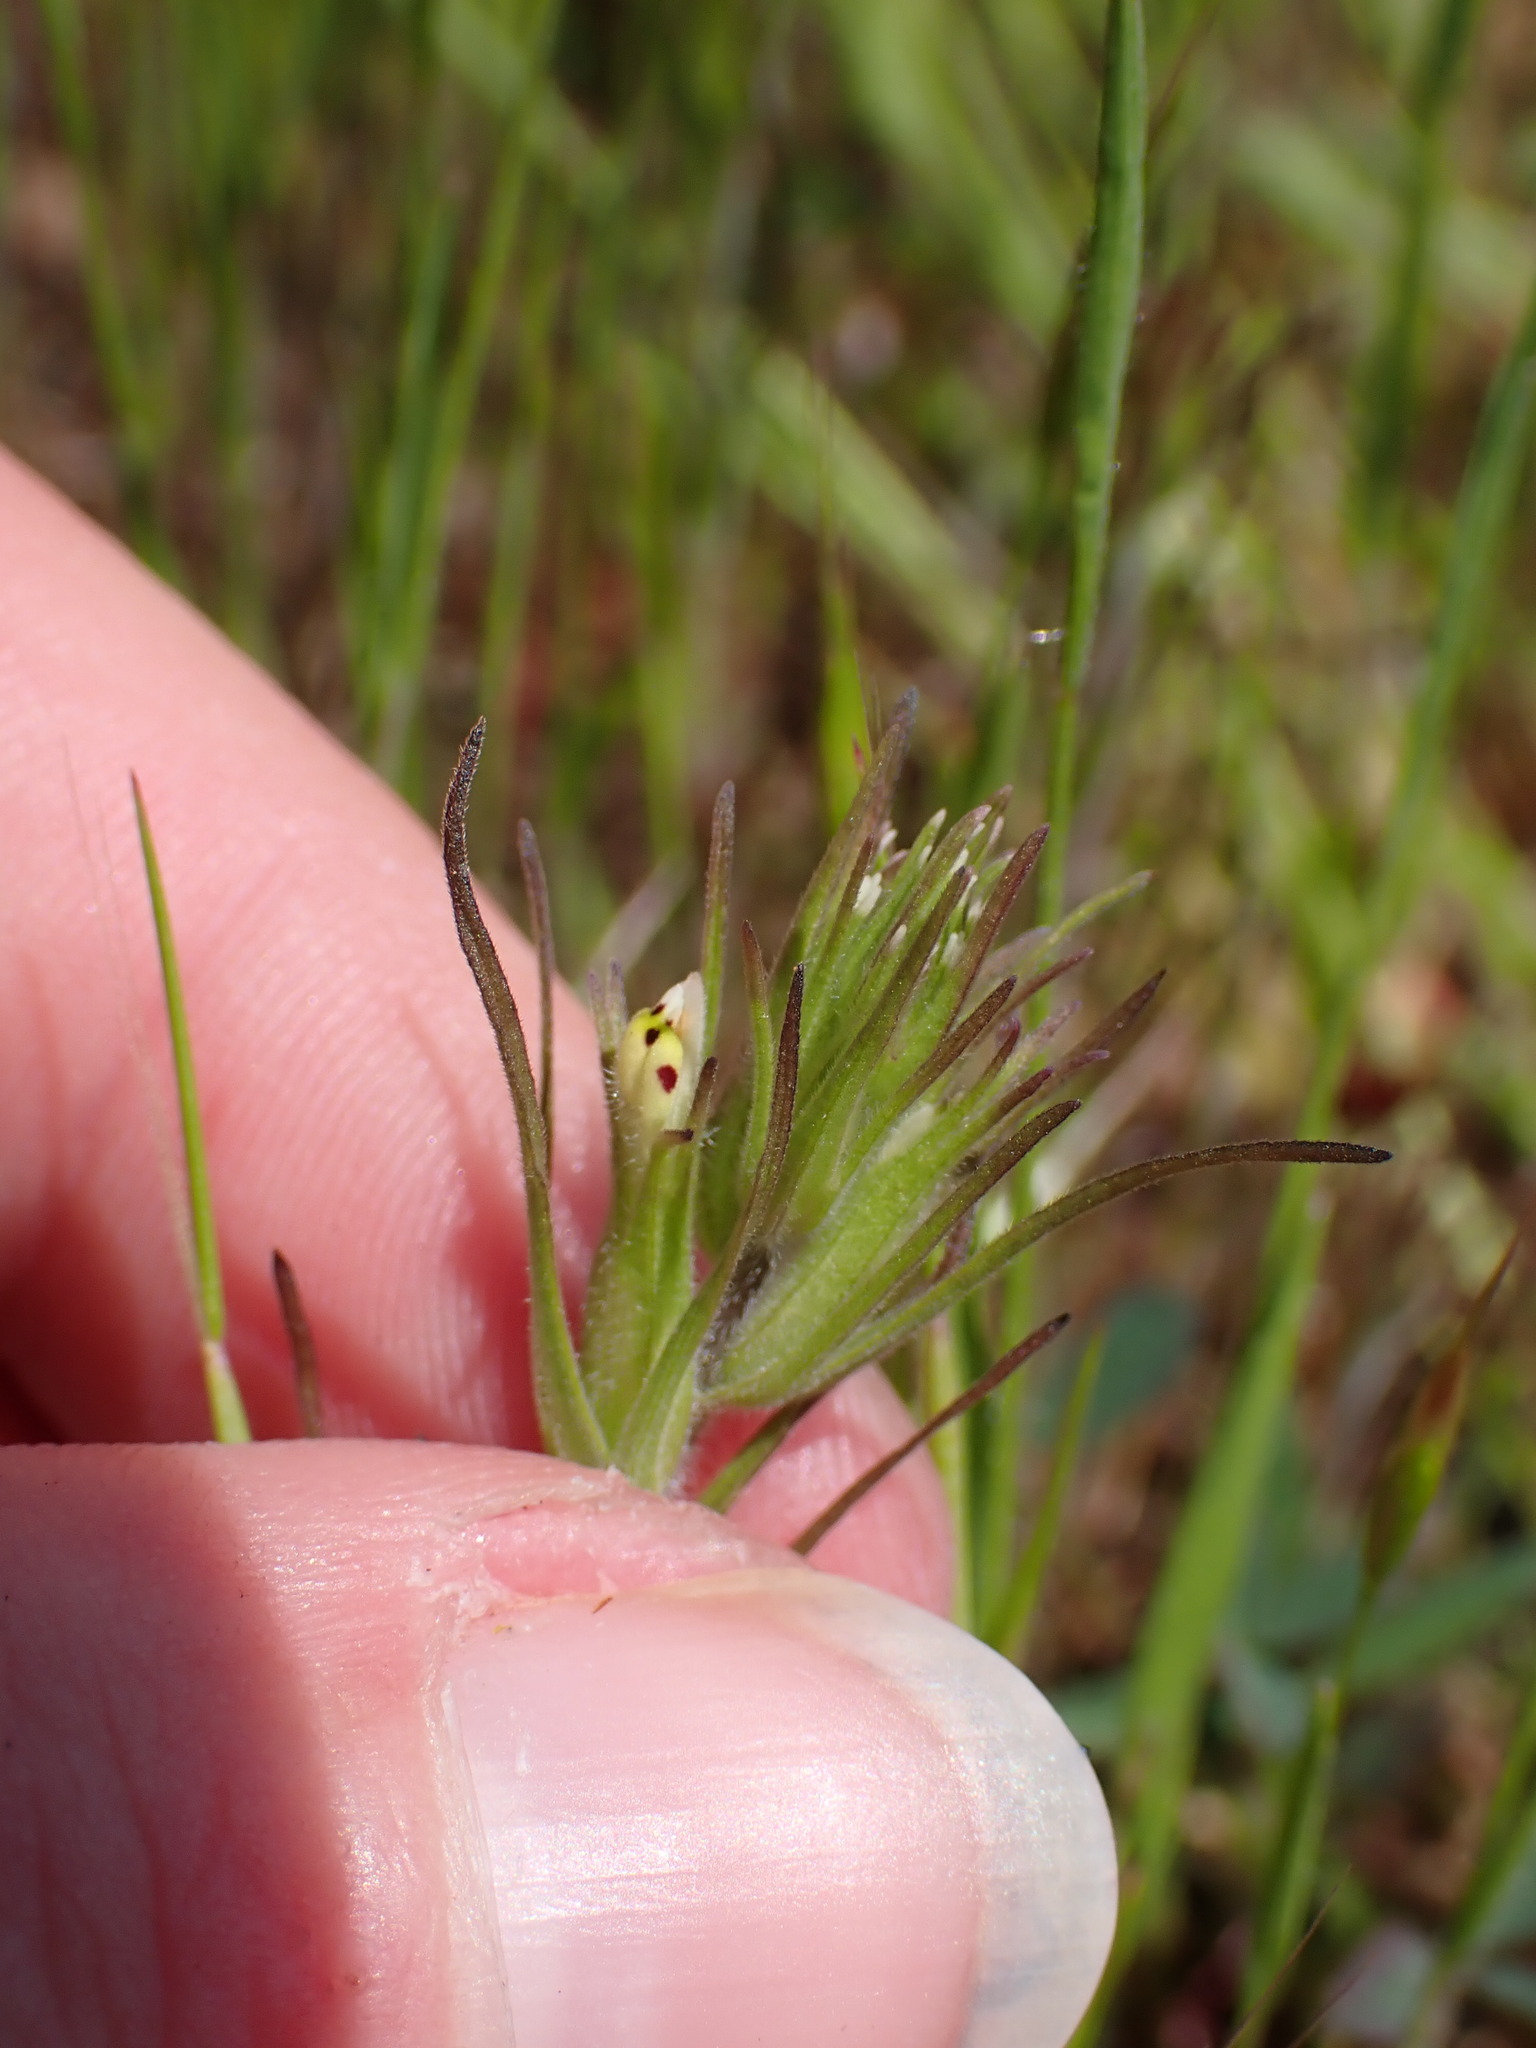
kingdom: Plantae
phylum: Tracheophyta
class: Magnoliopsida
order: Lamiales
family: Orobanchaceae
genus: Castilleja
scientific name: Castilleja attenuata
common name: Valley tassels
